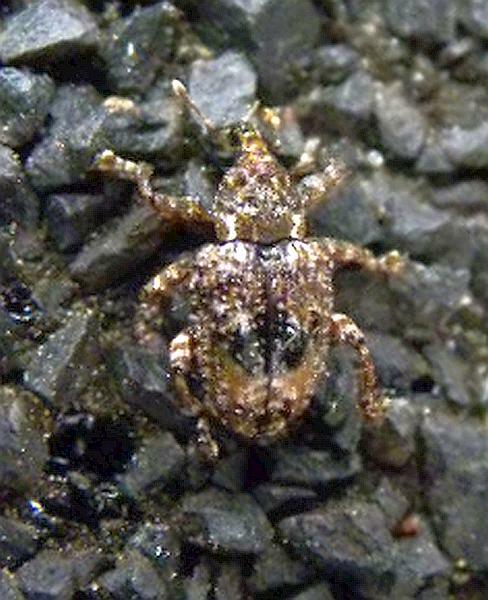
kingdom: Animalia
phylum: Arthropoda
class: Insecta
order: Coleoptera
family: Curculionidae
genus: Conotrachelus
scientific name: Conotrachelus nenuphar
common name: Plum curculio
